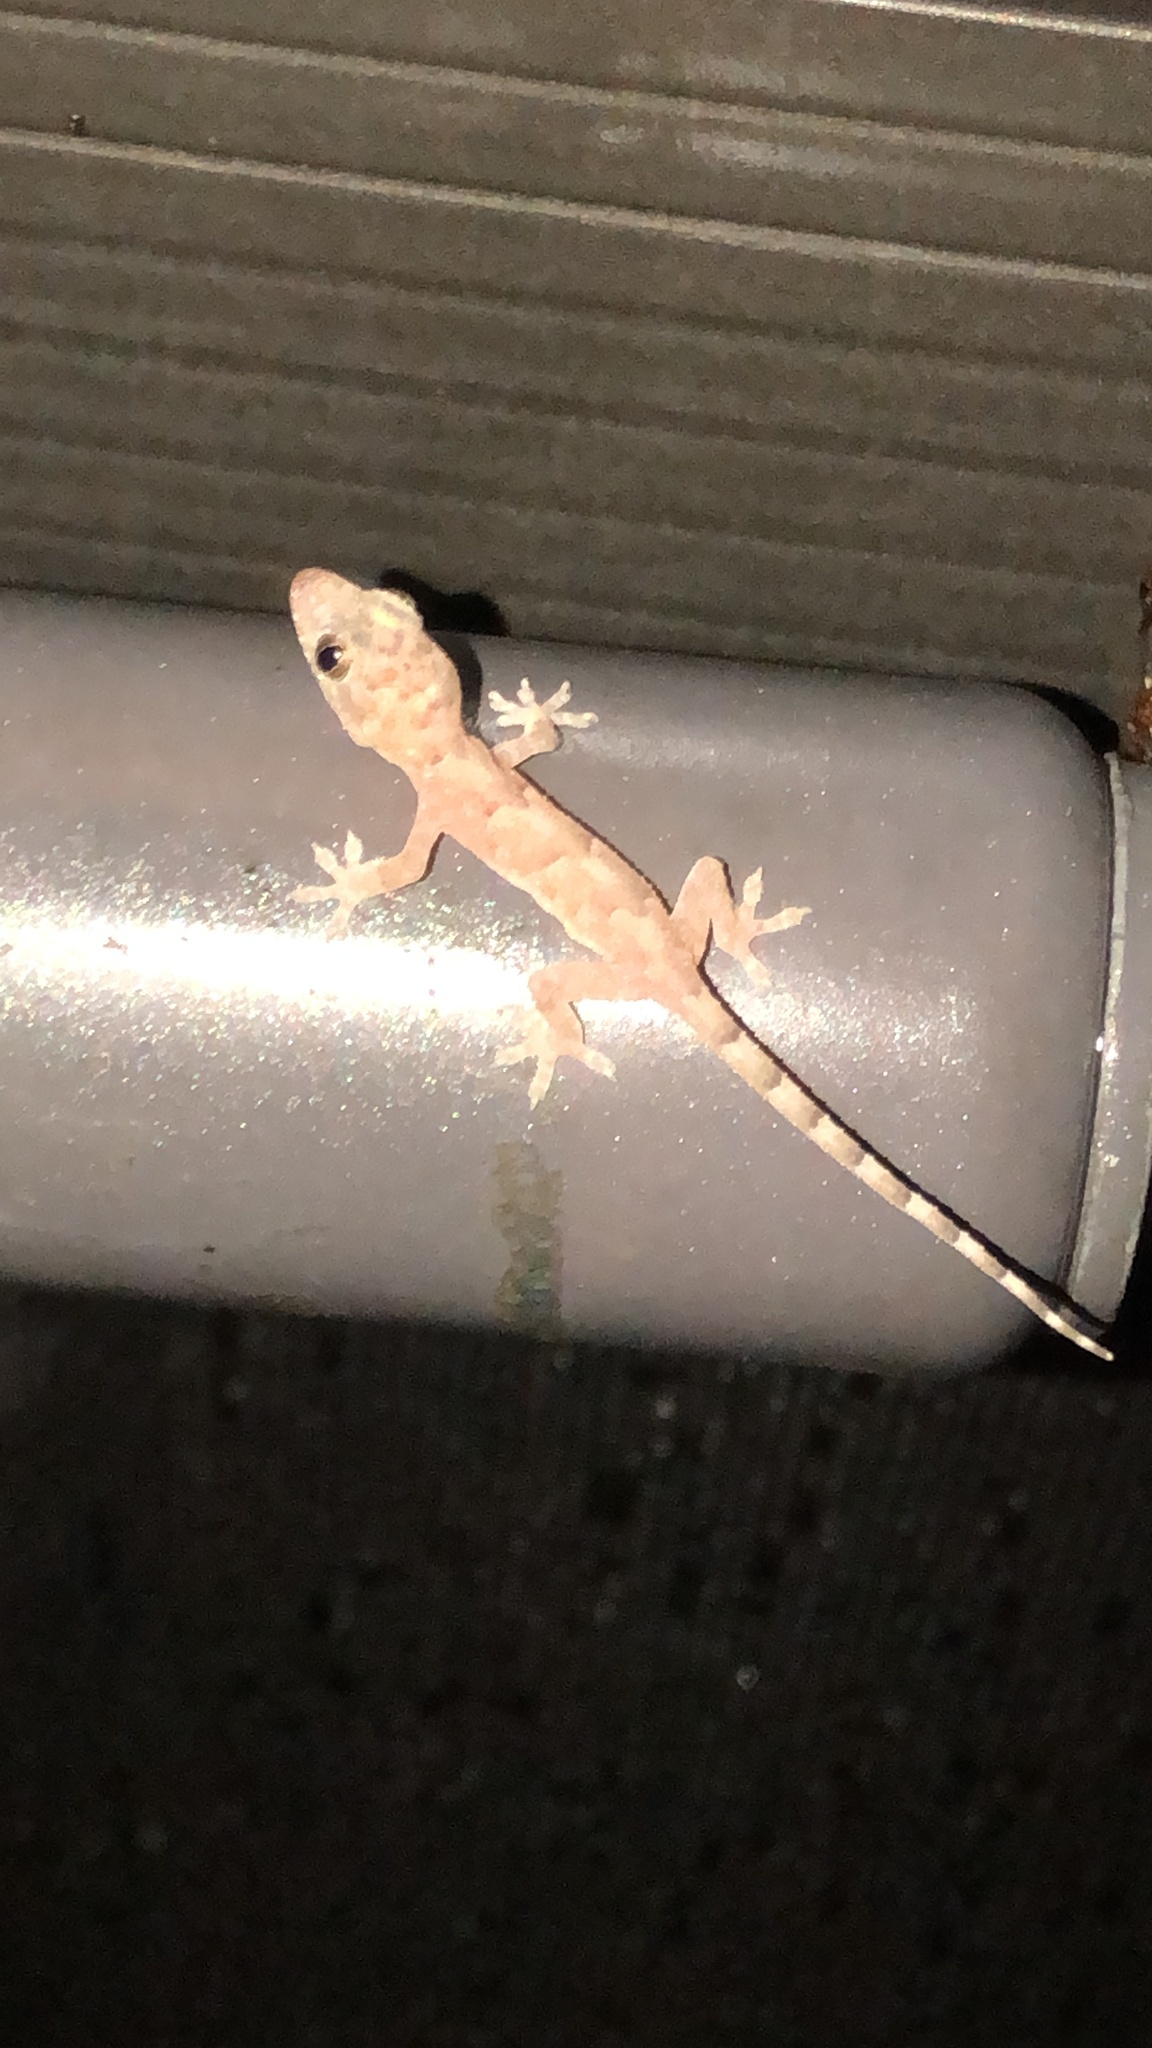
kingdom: Animalia
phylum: Chordata
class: Squamata
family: Gekkonidae
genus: Hemidactylus
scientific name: Hemidactylus mabouia
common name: House gecko
